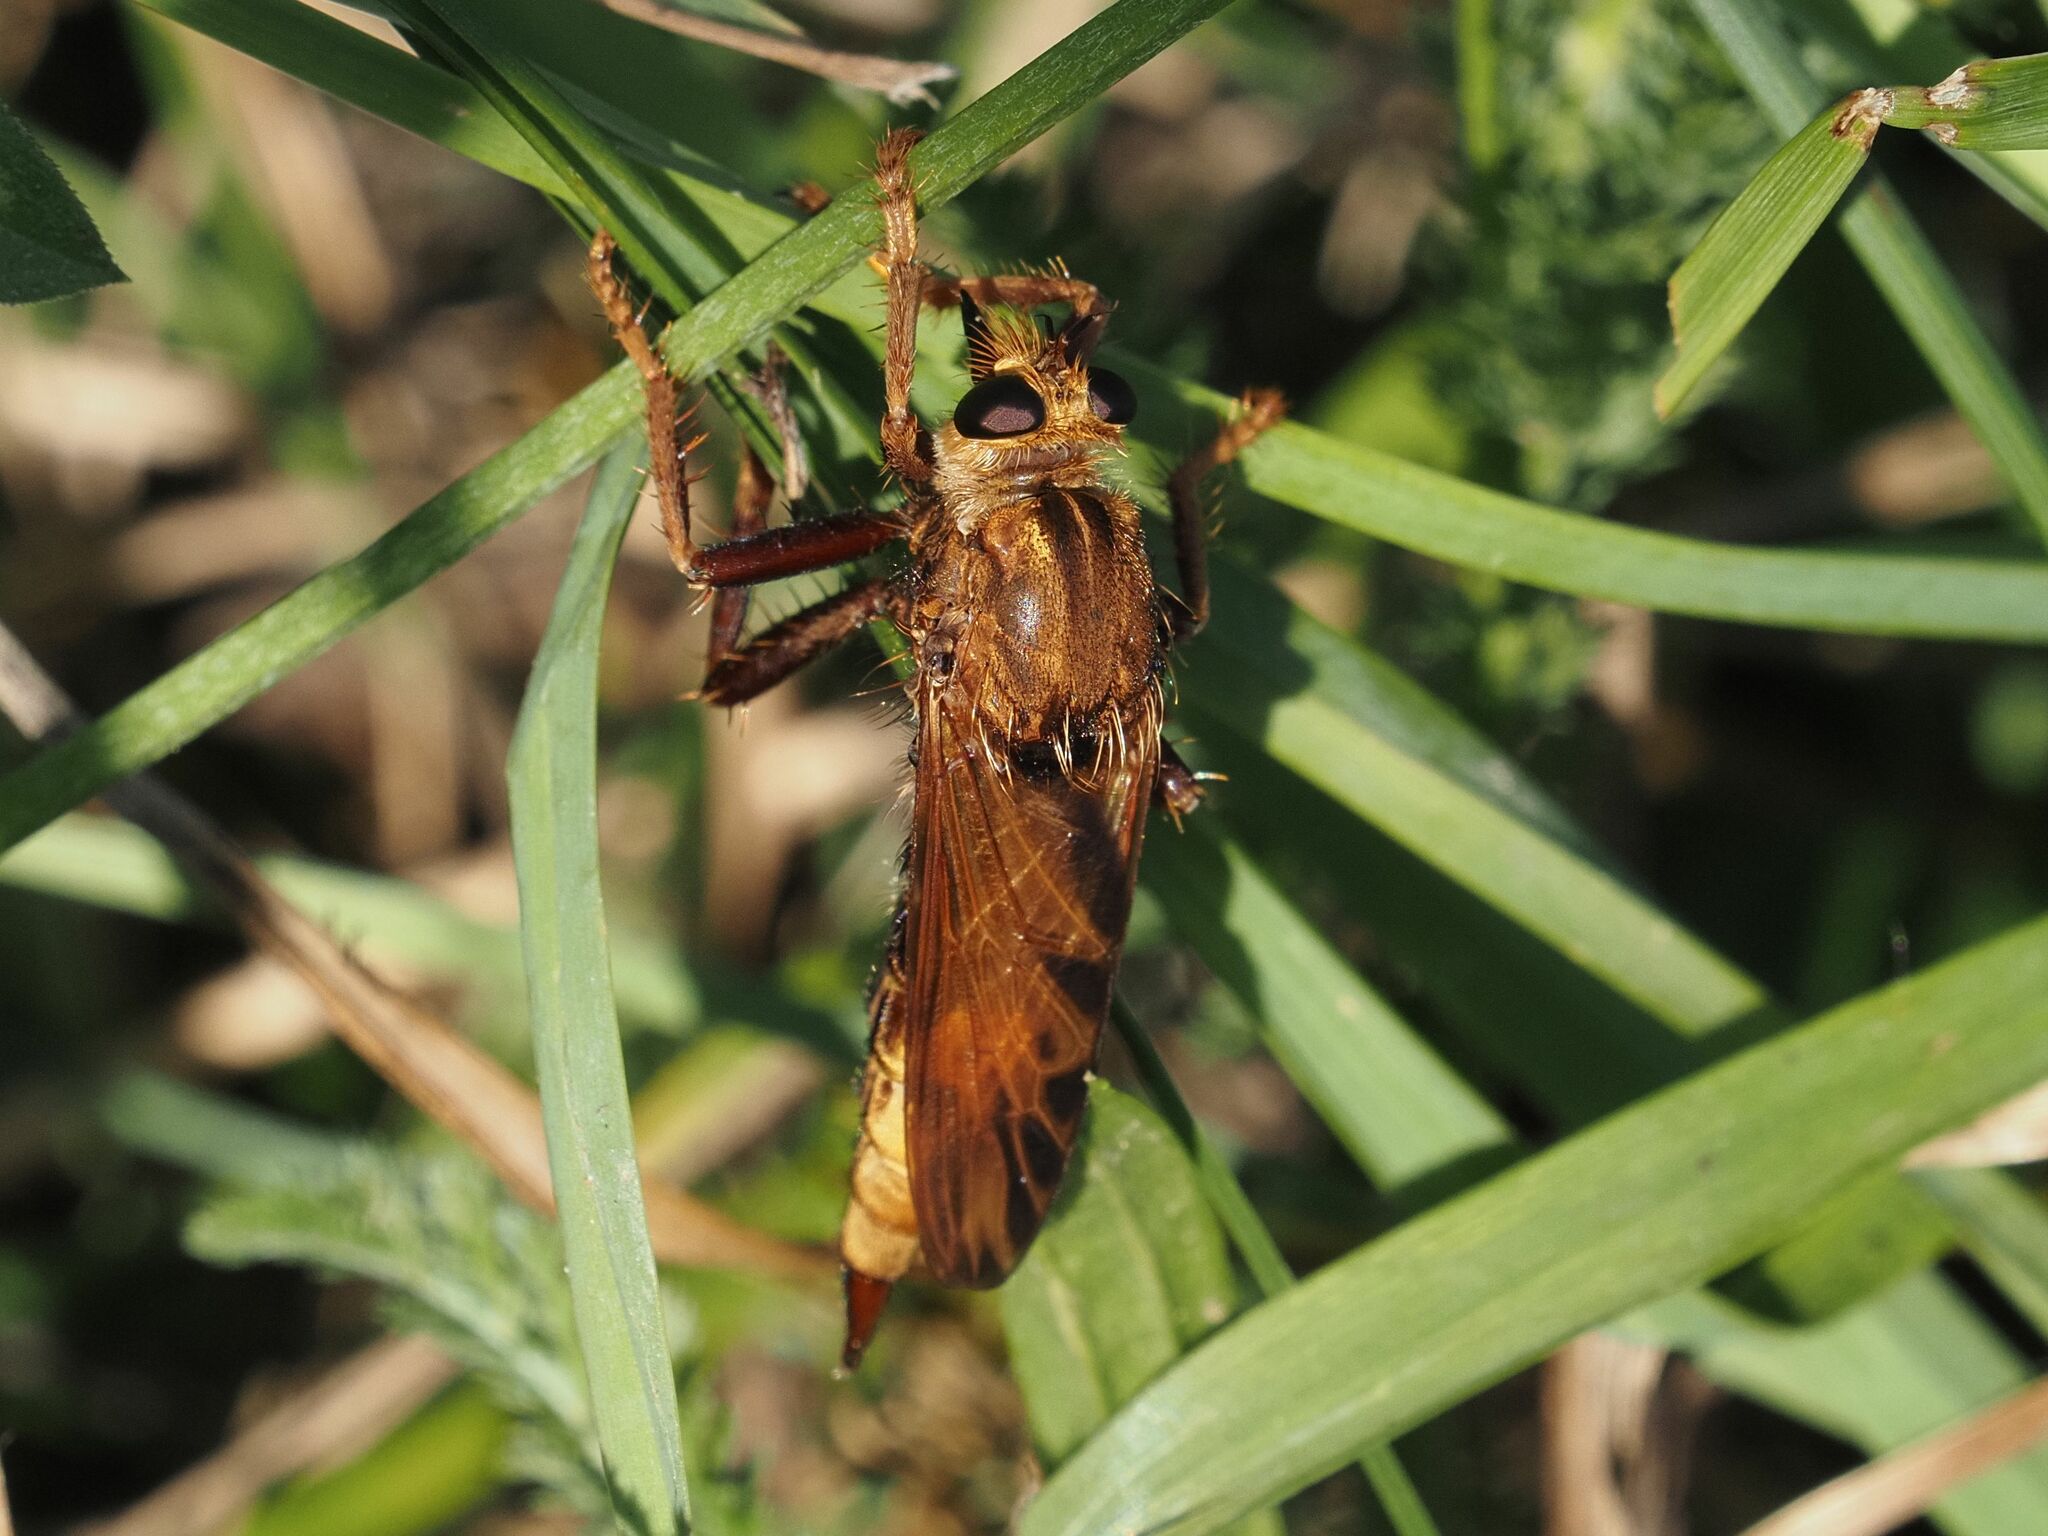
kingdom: Animalia
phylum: Arthropoda
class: Insecta
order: Diptera
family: Asilidae
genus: Asilus
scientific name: Asilus crabroniformis
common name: Hornet robberfly
